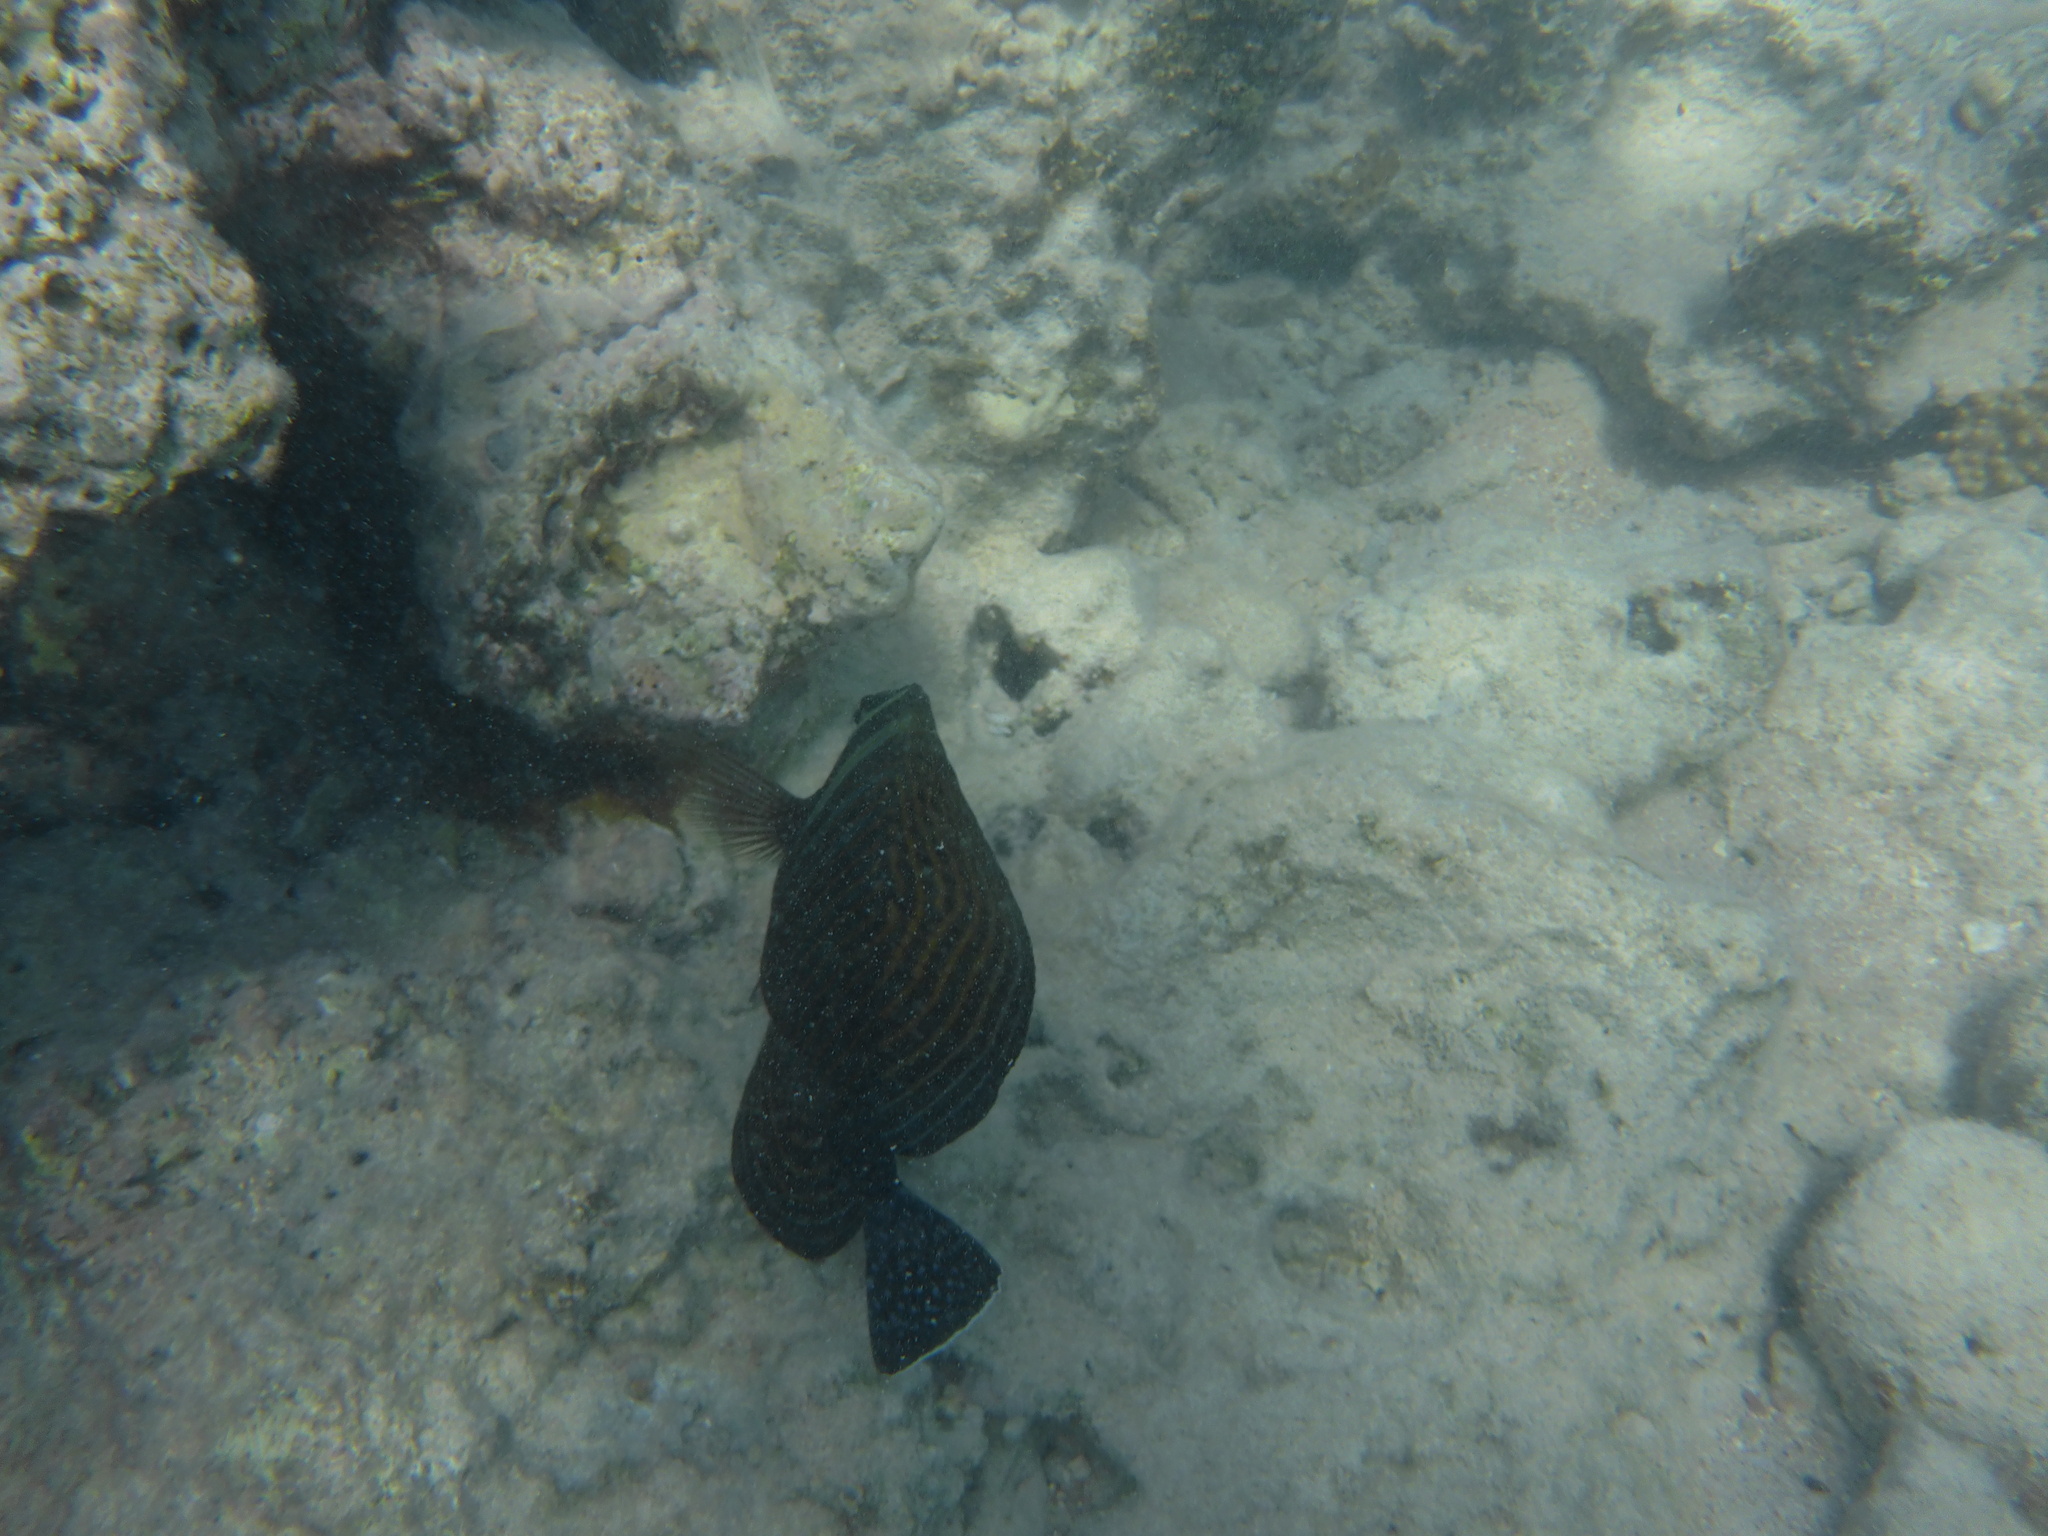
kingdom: Animalia
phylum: Chordata
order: Perciformes
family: Acanthuridae
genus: Zebrasoma
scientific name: Zebrasoma desjardinii
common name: Desjardin's sailfin tang
